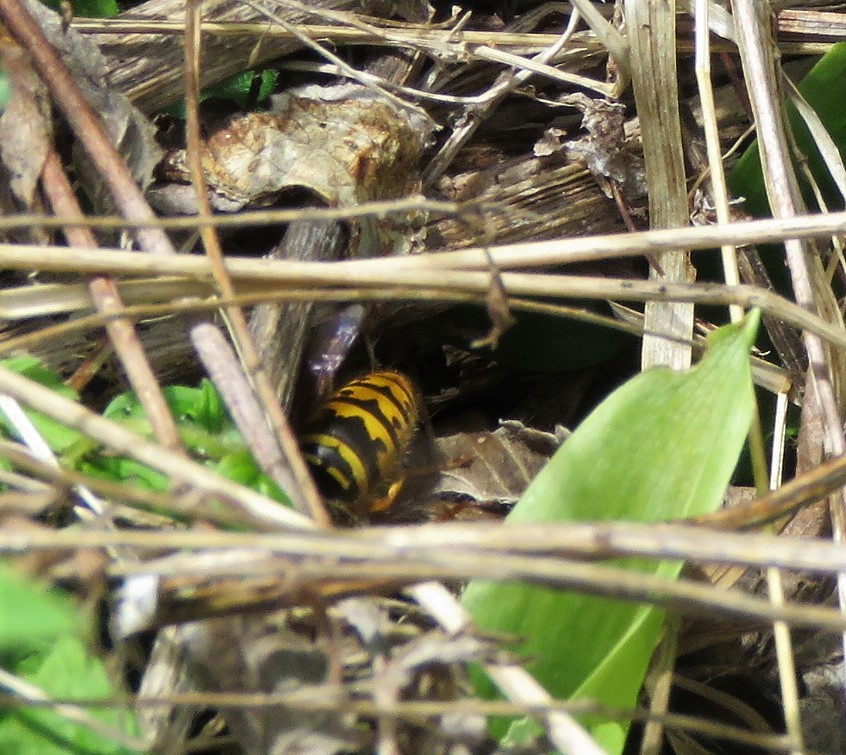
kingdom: Animalia
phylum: Arthropoda
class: Insecta
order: Hymenoptera
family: Vespidae
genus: Vespula
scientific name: Vespula maculifrons
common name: Eastern yellowjacket
